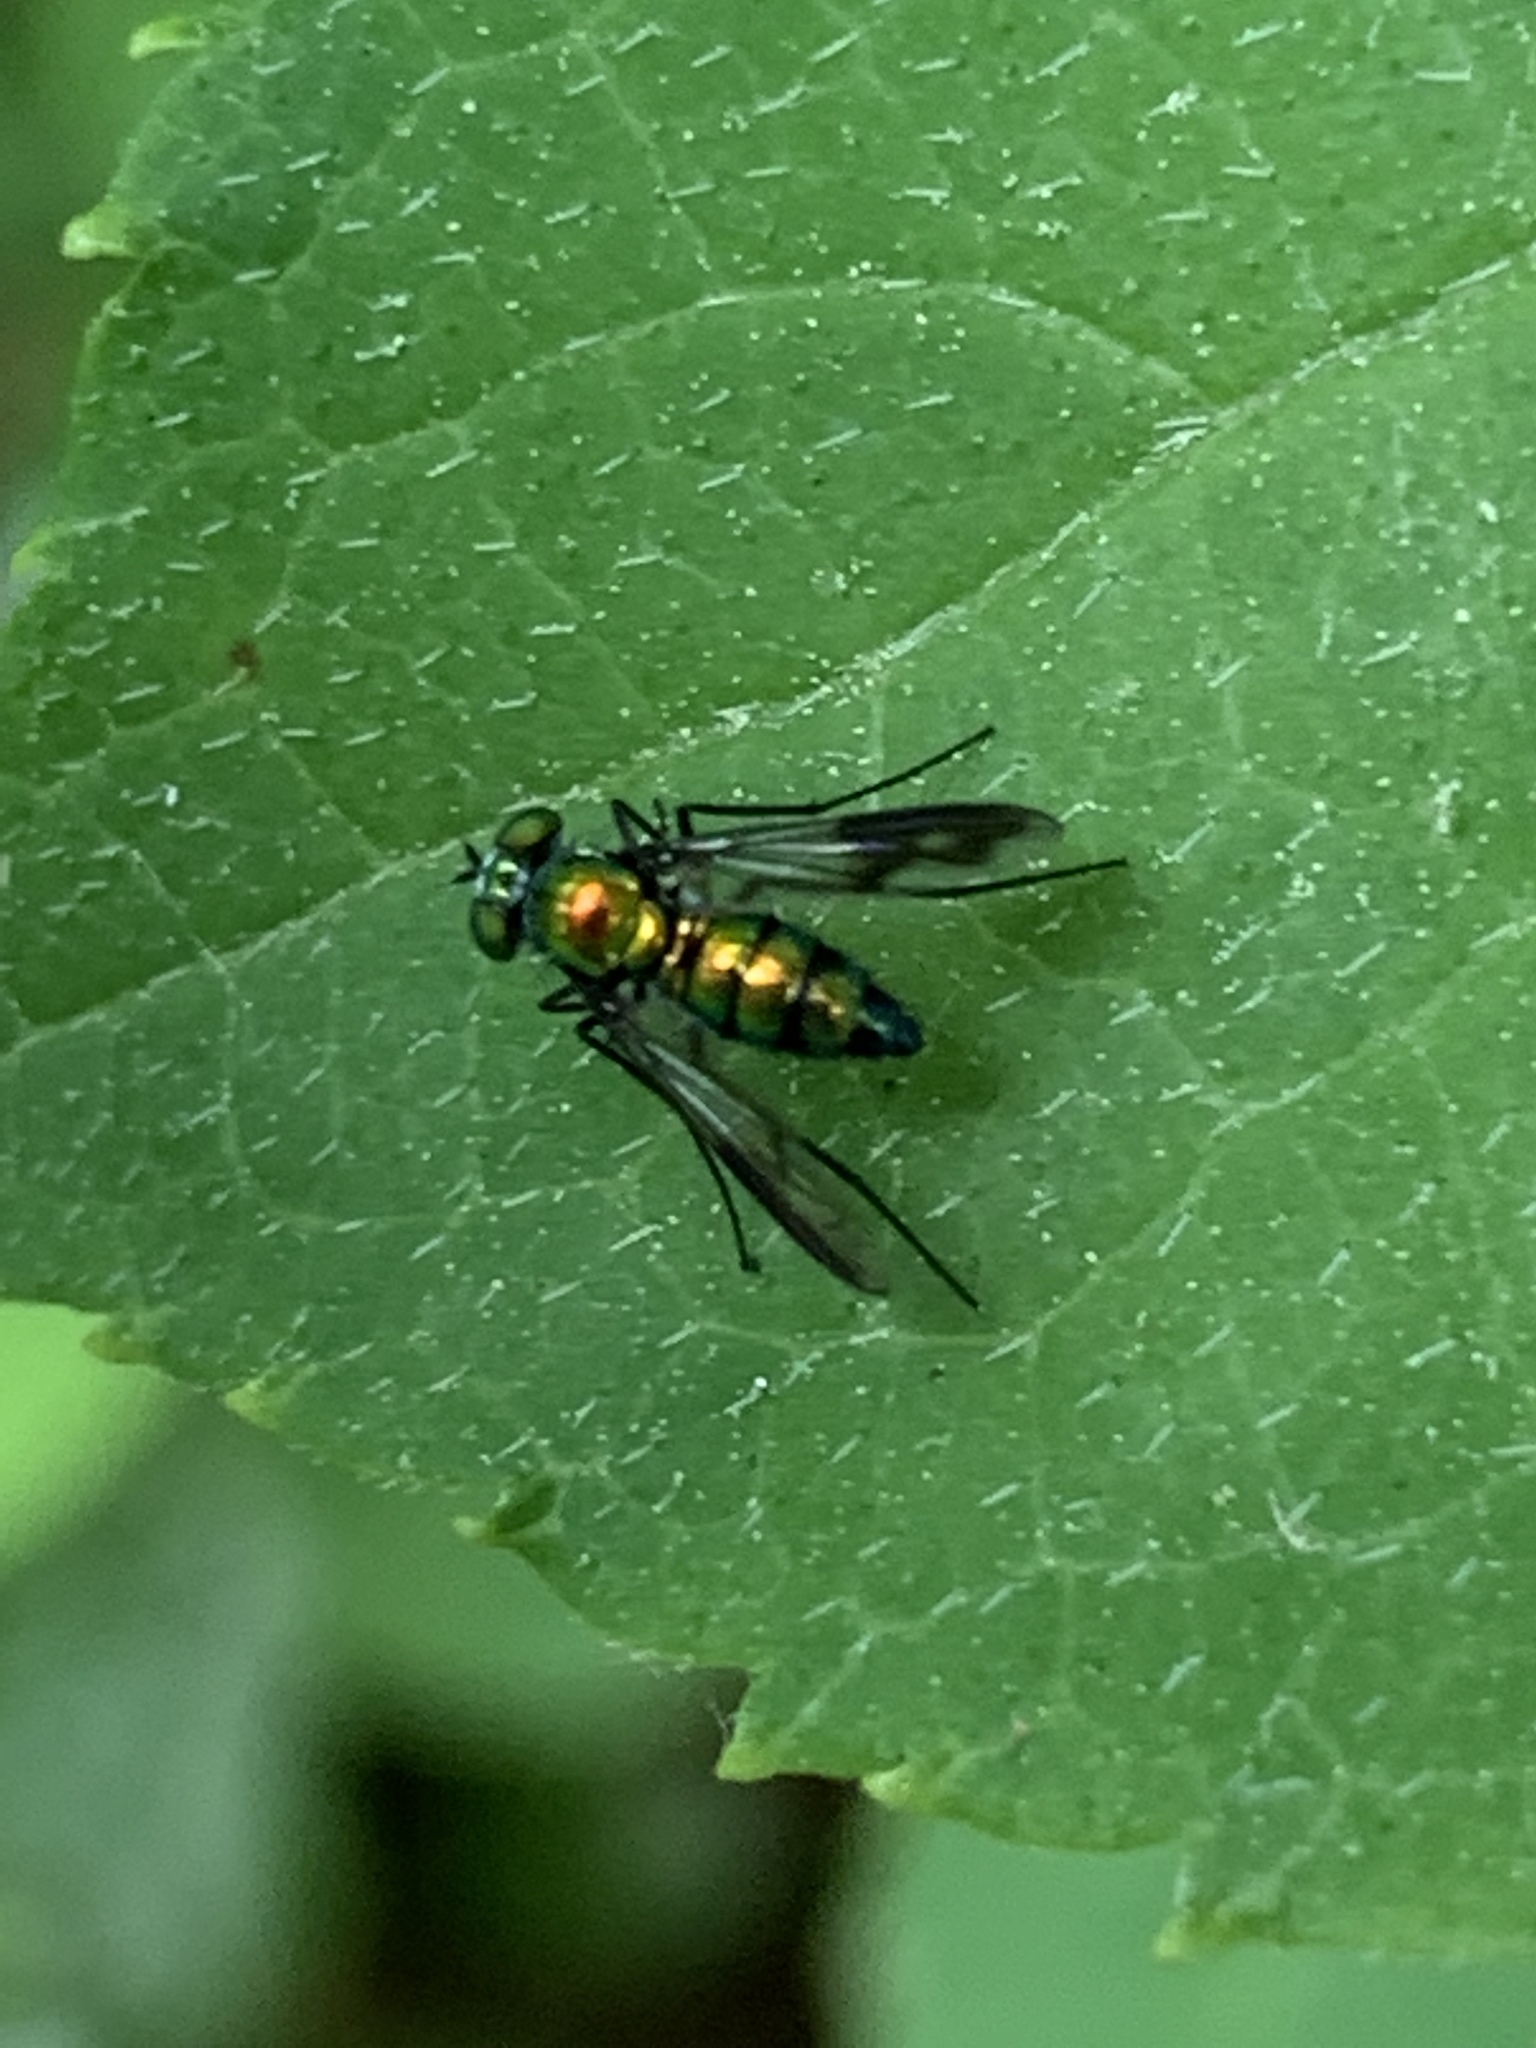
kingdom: Animalia
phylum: Arthropoda
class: Insecta
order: Diptera
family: Dolichopodidae
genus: Condylostylus
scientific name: Condylostylus patibulatus
